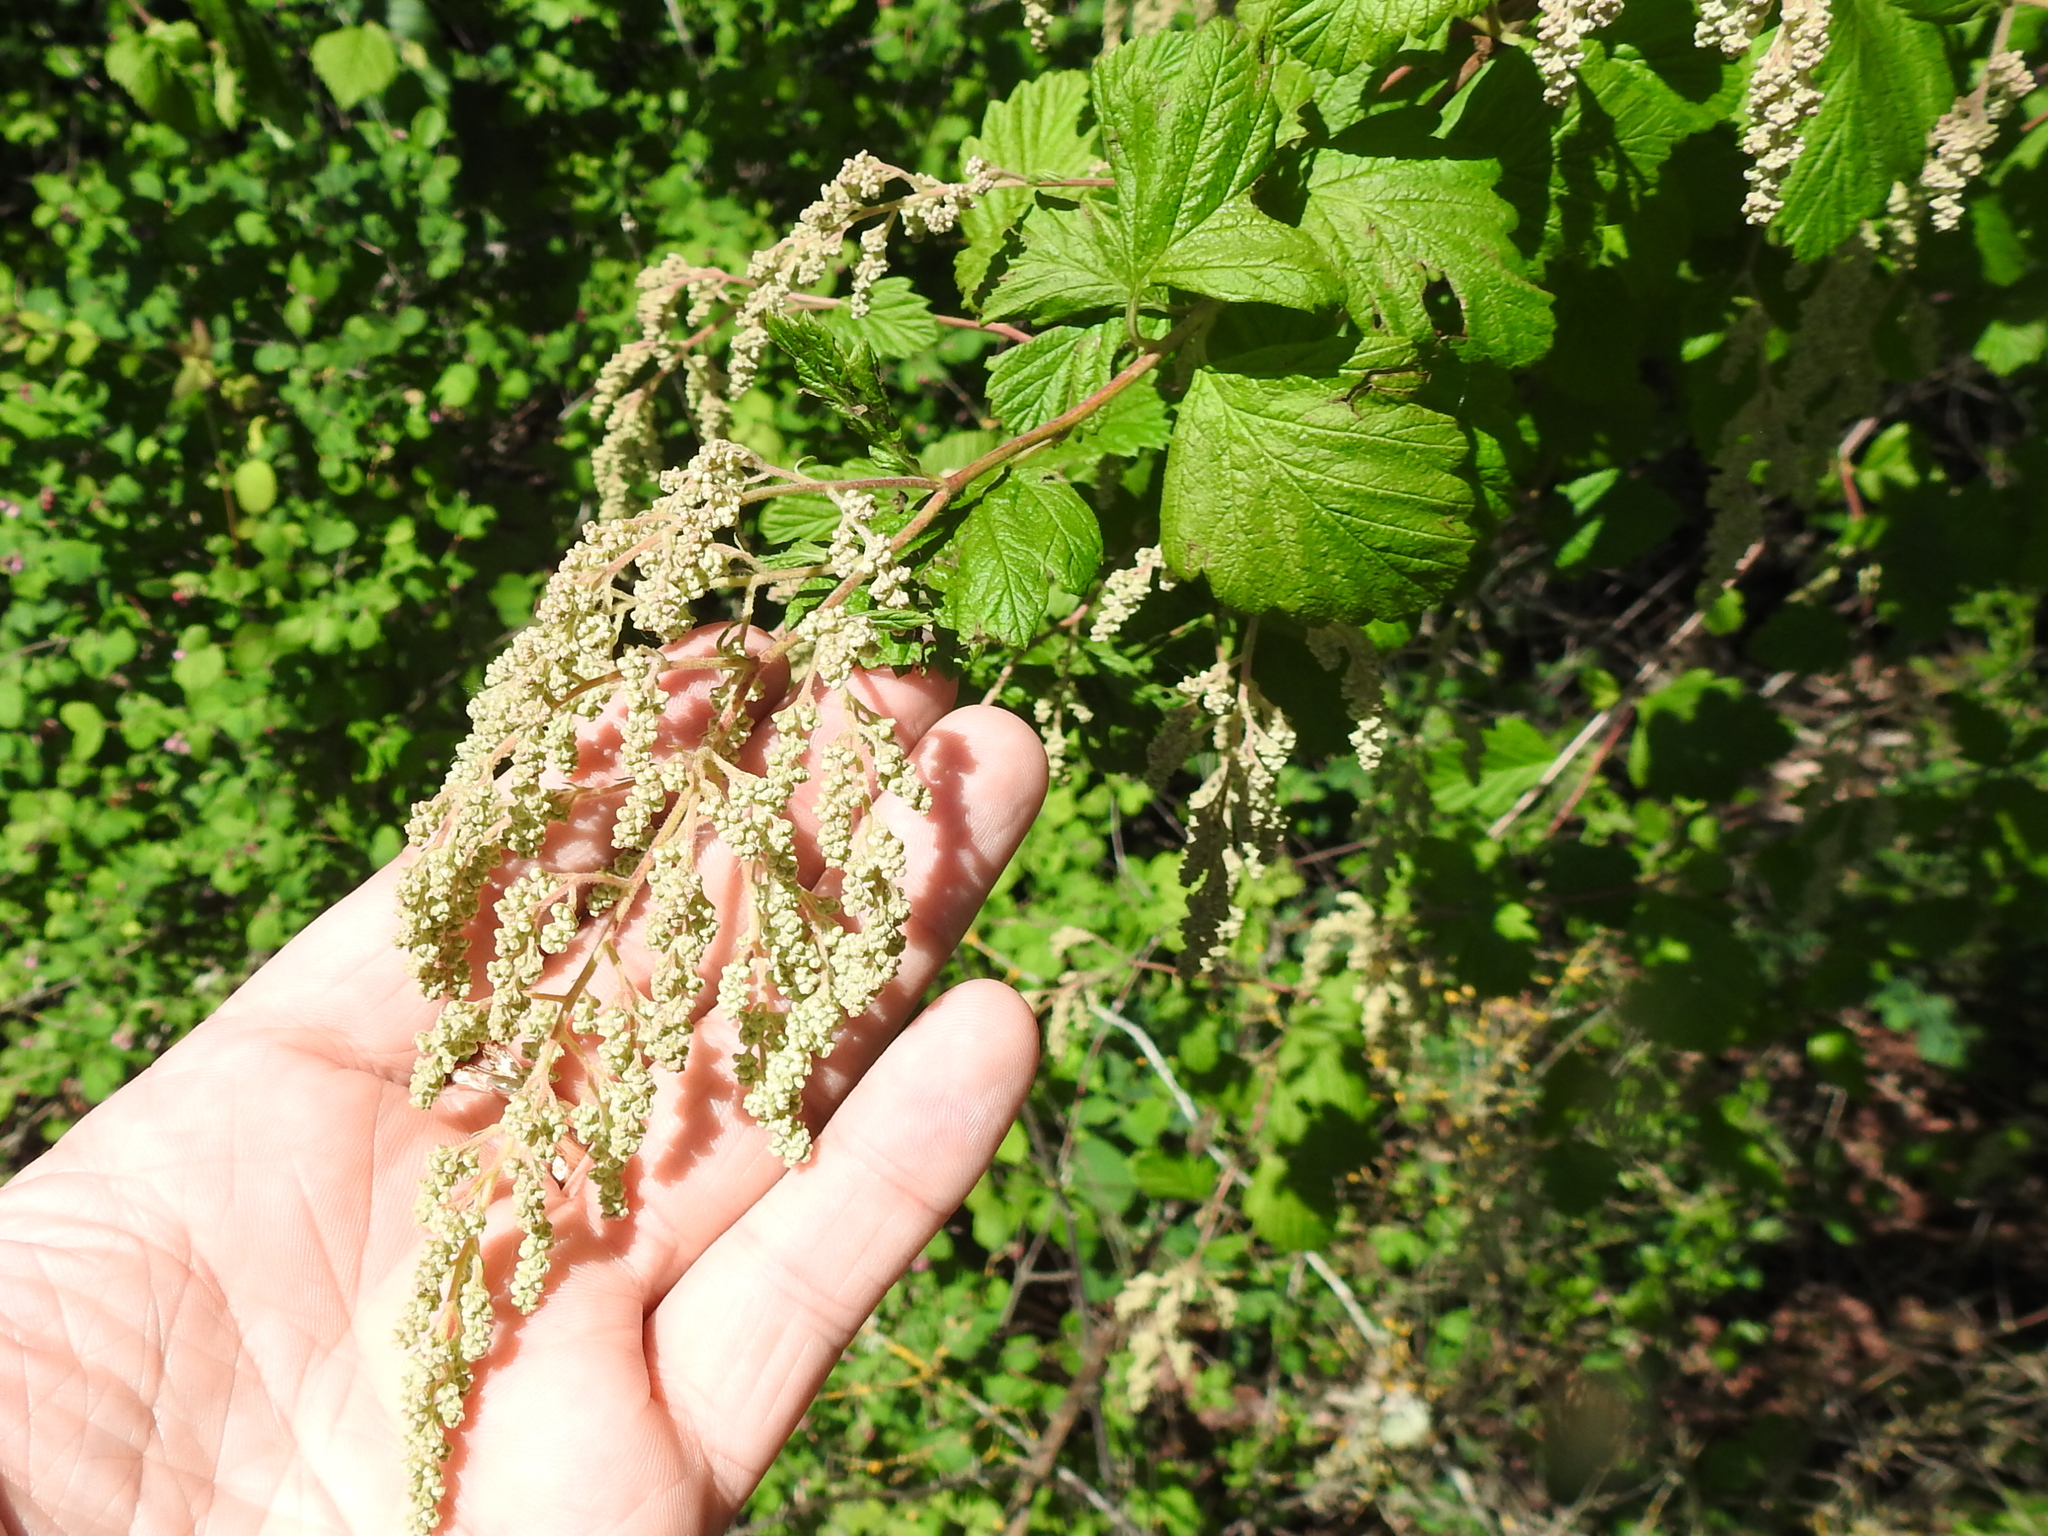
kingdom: Plantae
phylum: Tracheophyta
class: Magnoliopsida
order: Rosales
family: Rosaceae
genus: Holodiscus
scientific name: Holodiscus discolor
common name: Oceanspray
